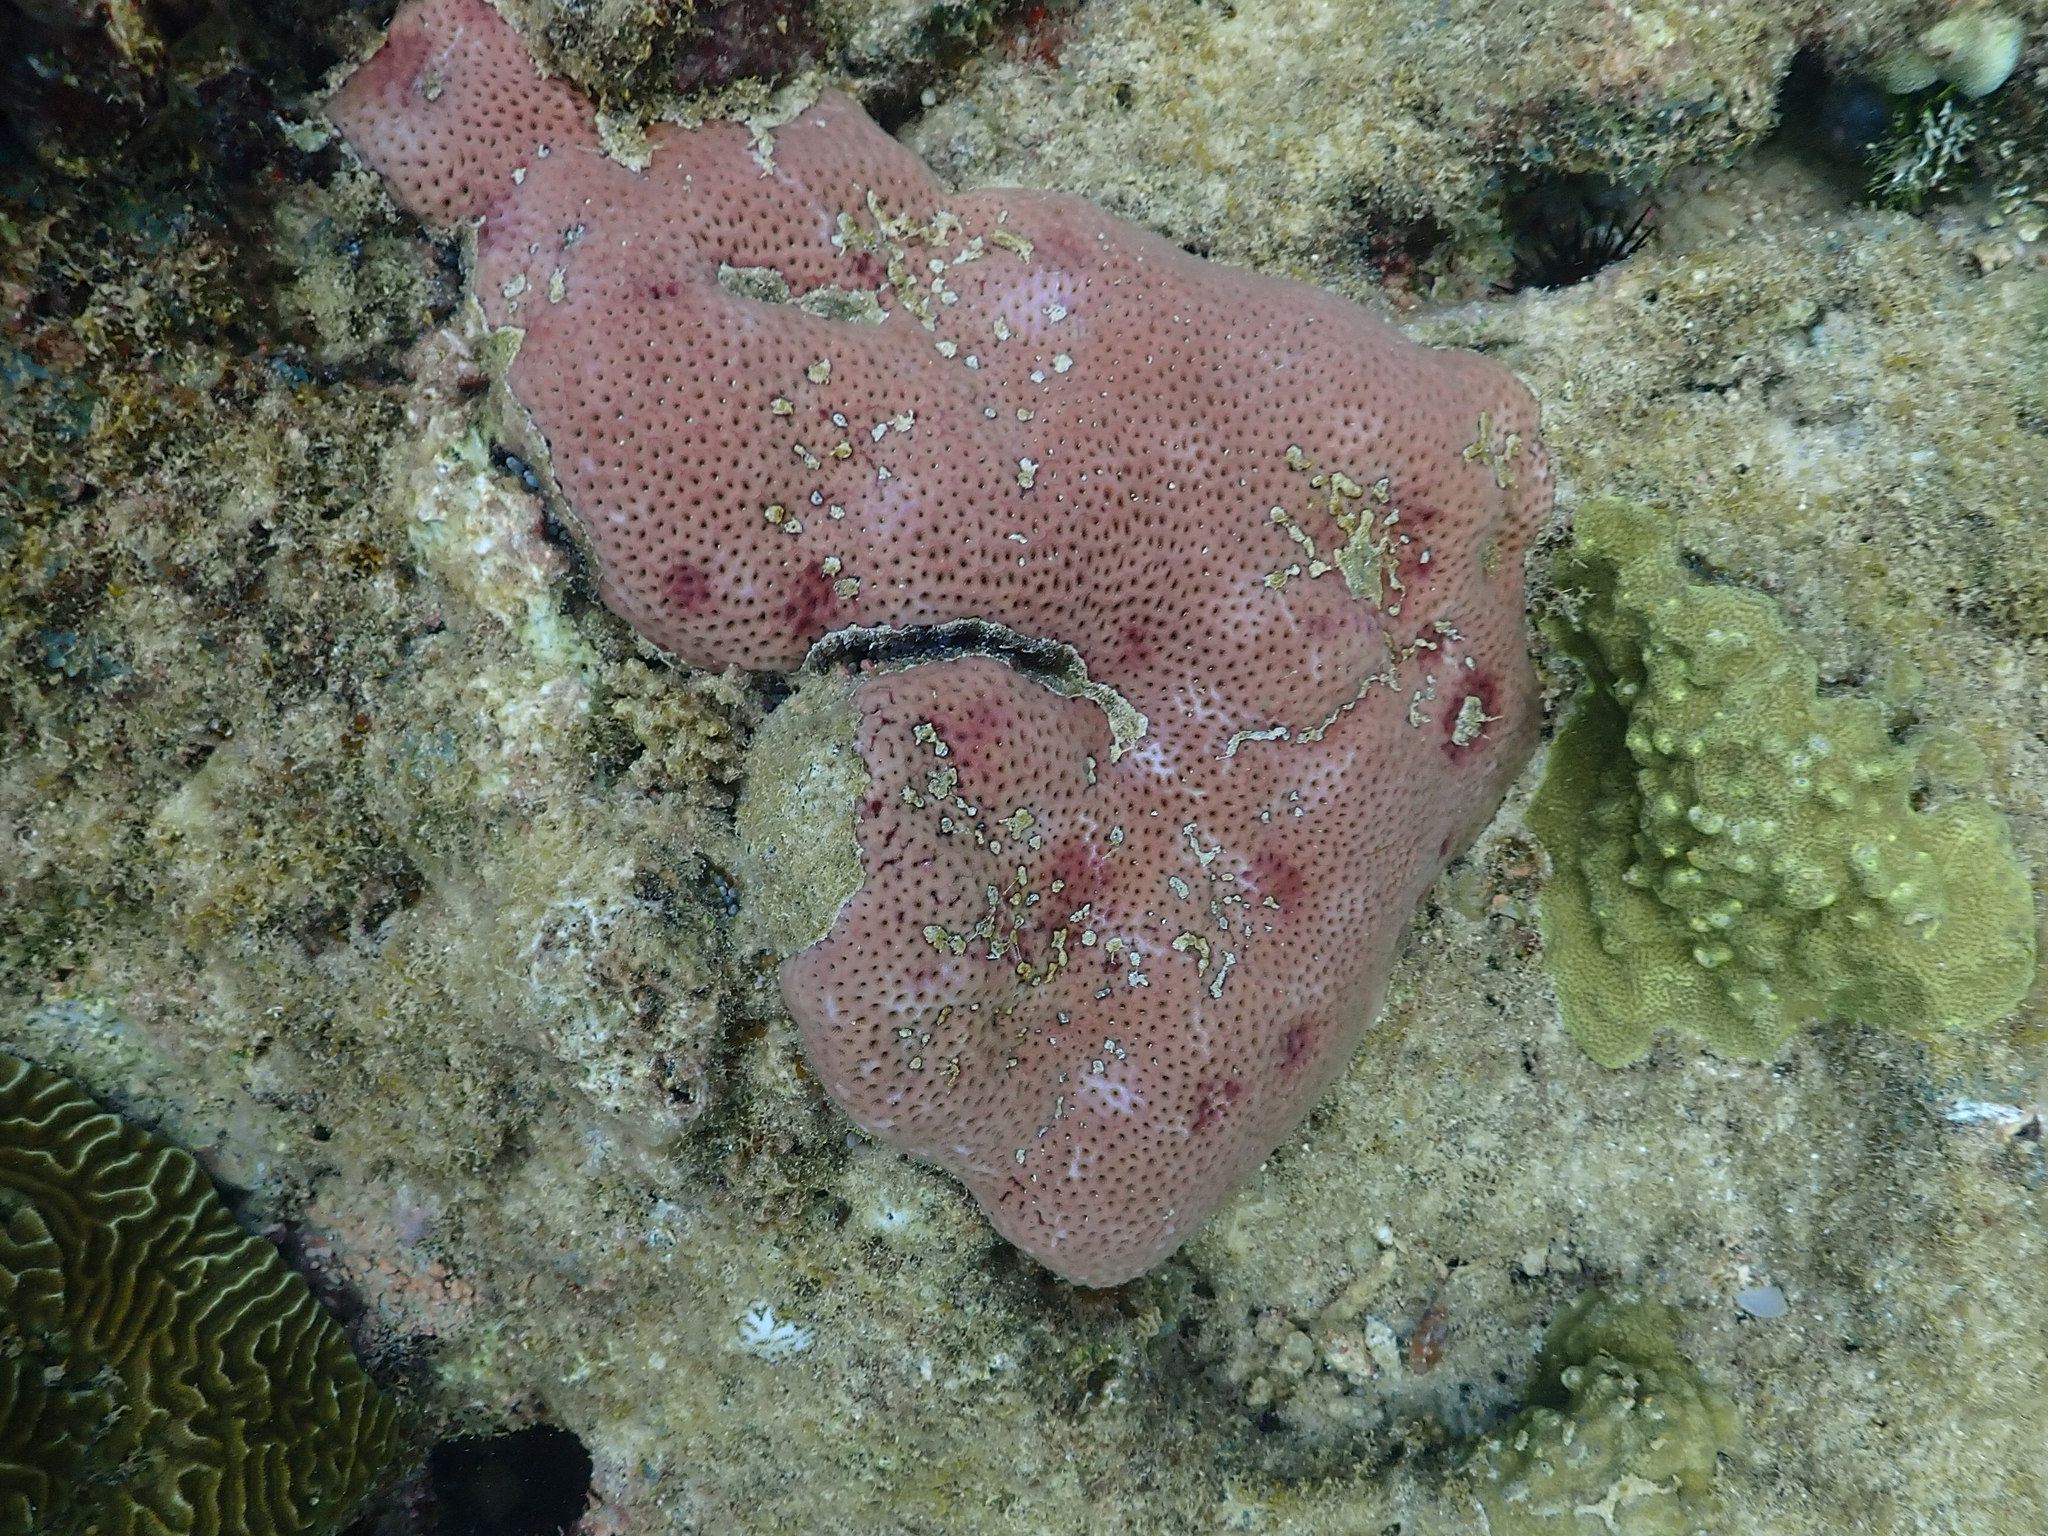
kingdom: Animalia
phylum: Cnidaria
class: Anthozoa
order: Scleractinia
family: Rhizangiidae
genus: Siderastrea
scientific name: Siderastrea siderea
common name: Massive starlet coral
